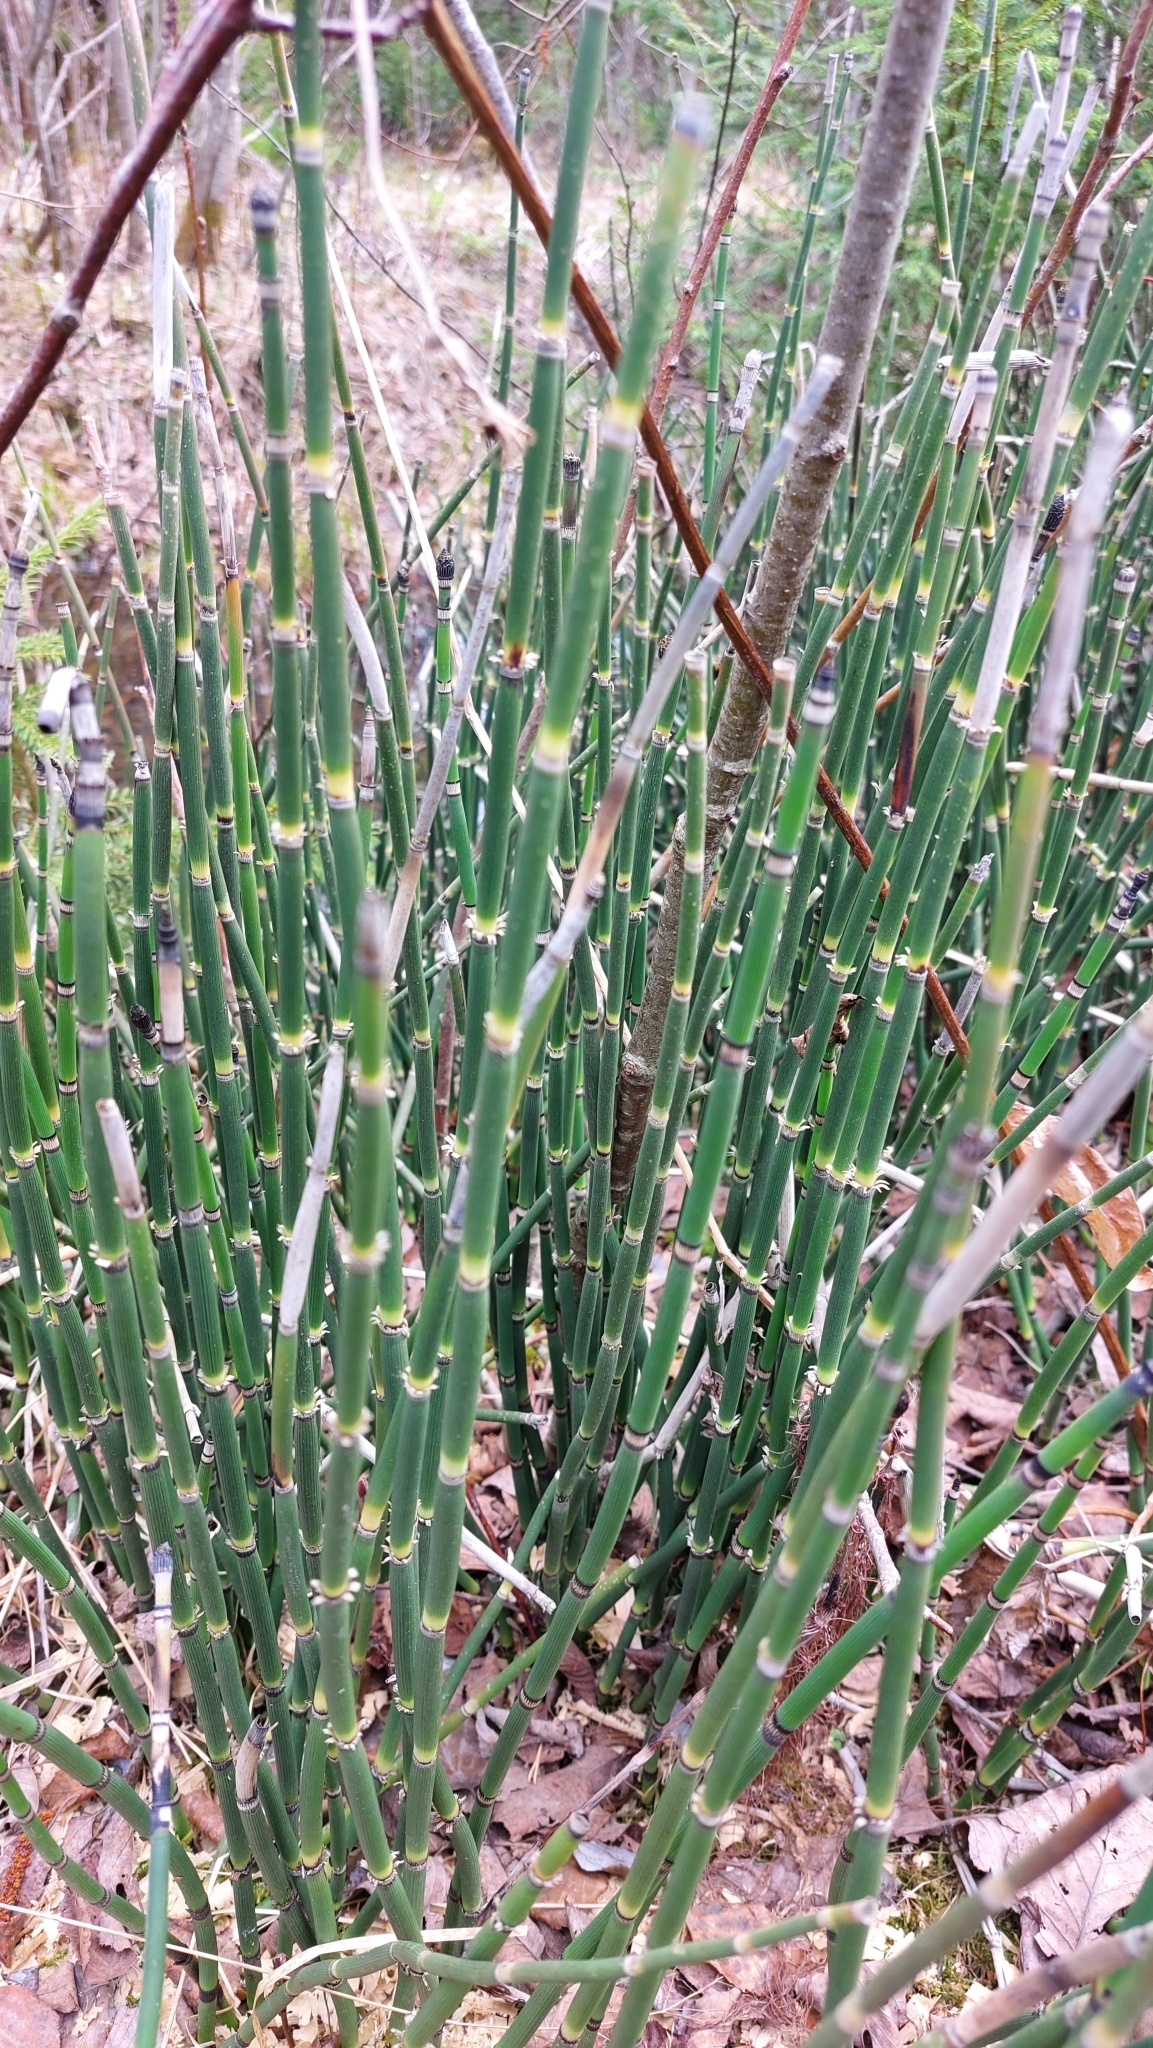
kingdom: Plantae
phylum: Tracheophyta
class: Polypodiopsida
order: Equisetales
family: Equisetaceae
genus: Equisetum
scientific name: Equisetum hyemale
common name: Rough horsetail
